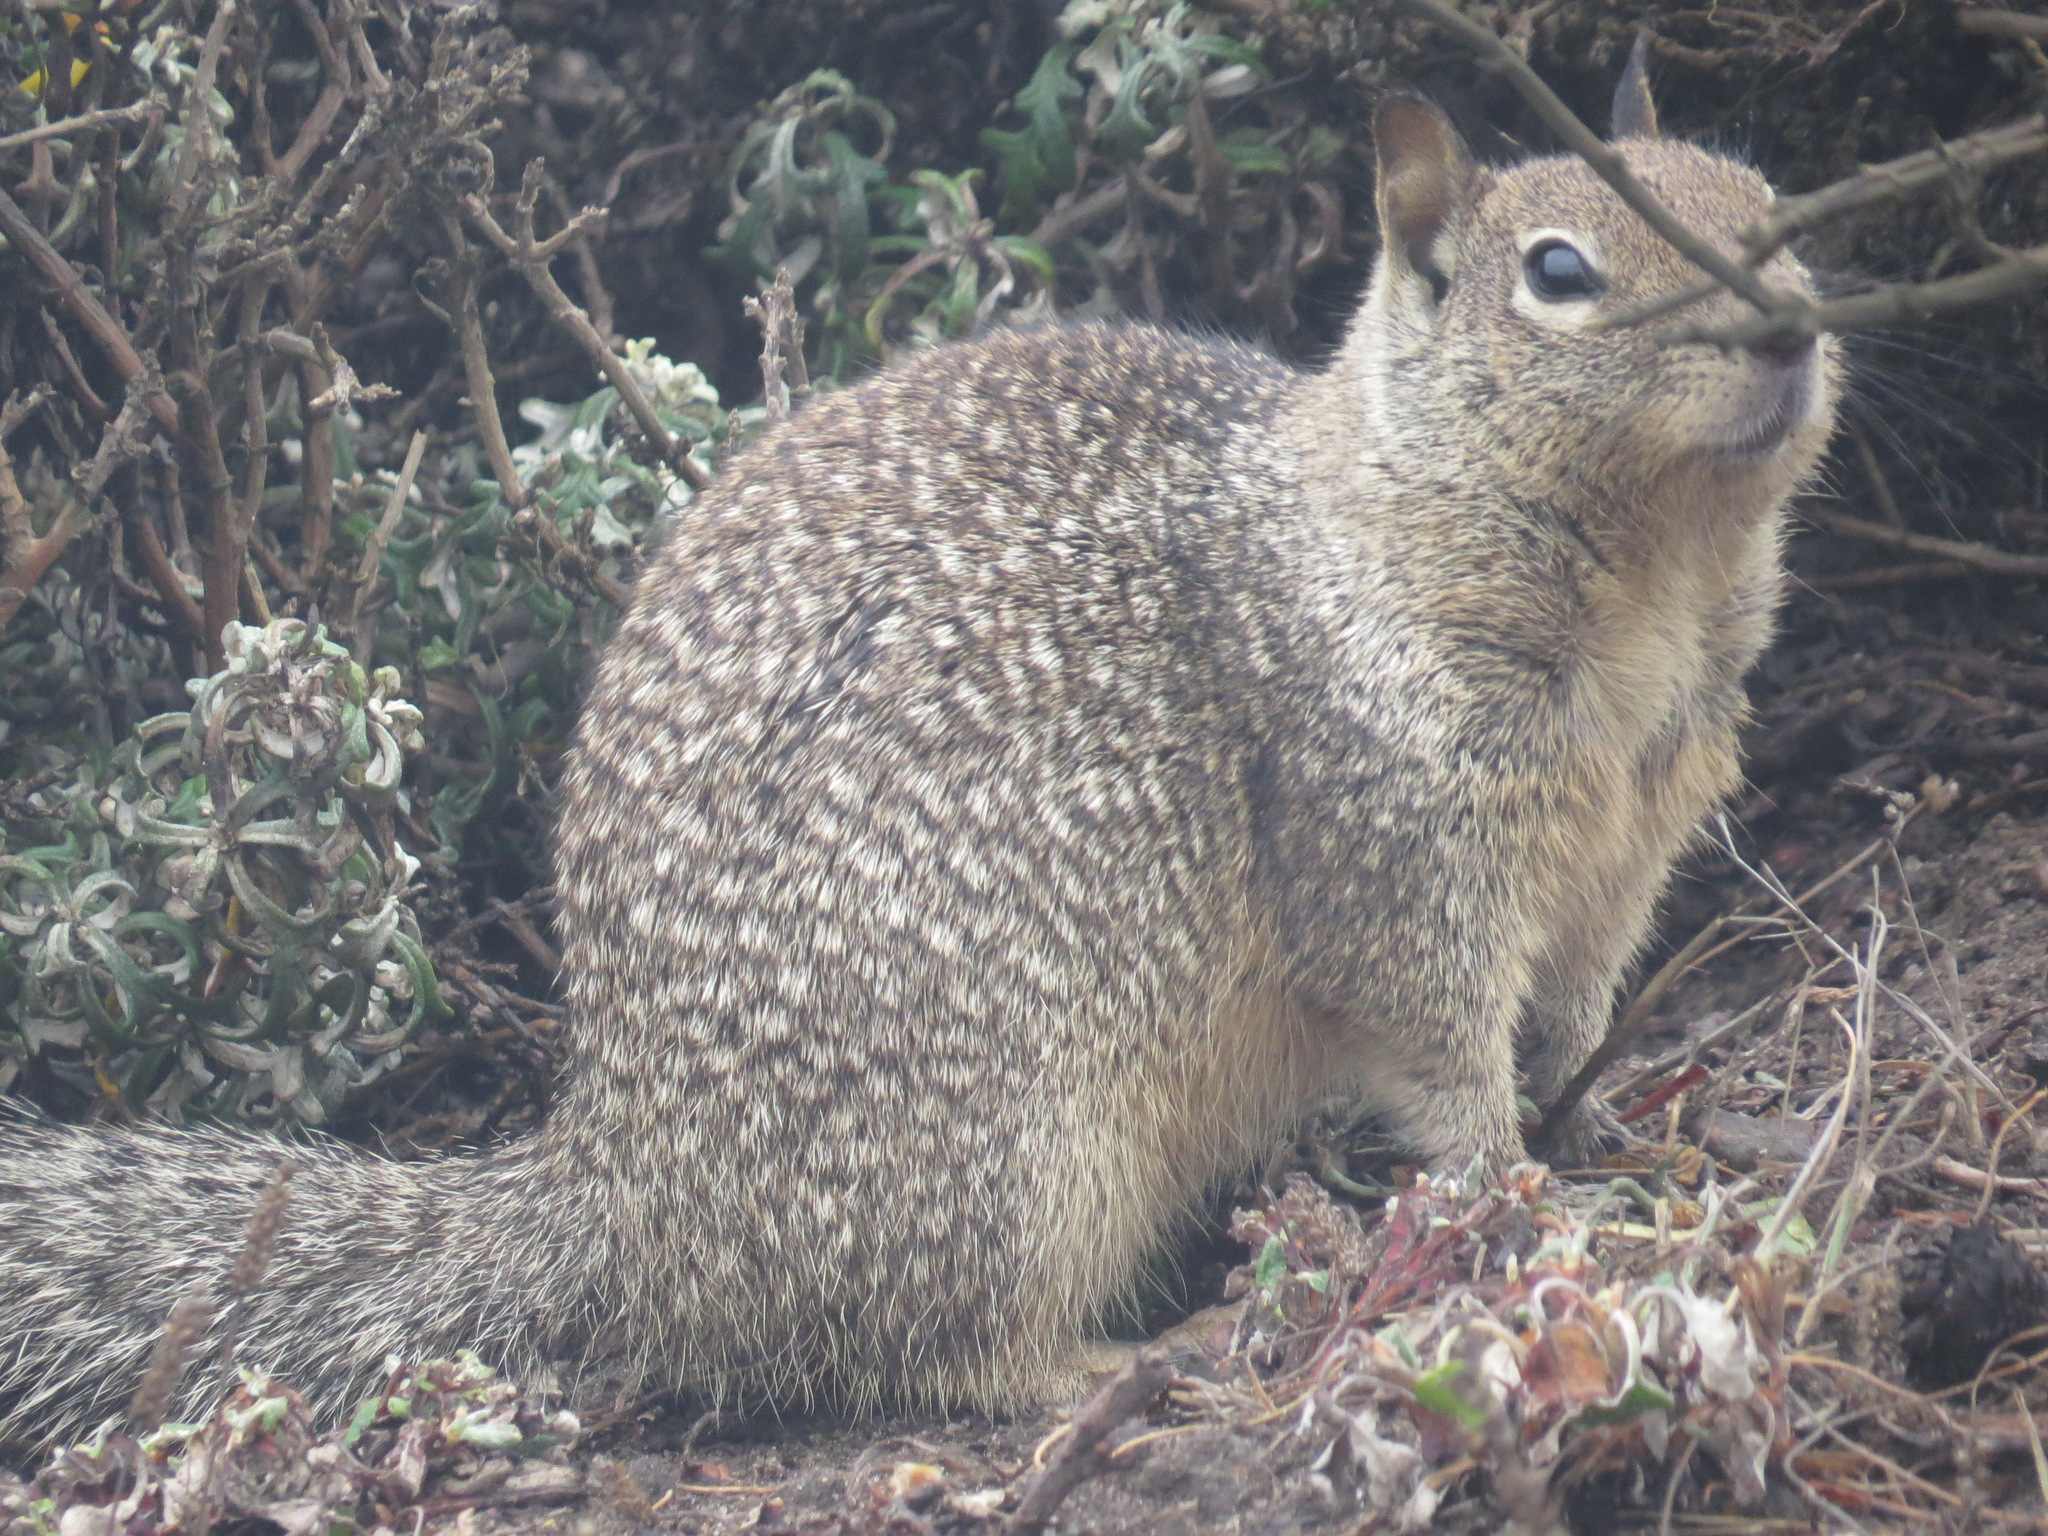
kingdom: Animalia
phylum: Chordata
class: Mammalia
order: Rodentia
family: Sciuridae
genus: Otospermophilus
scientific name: Otospermophilus beecheyi
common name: California ground squirrel
